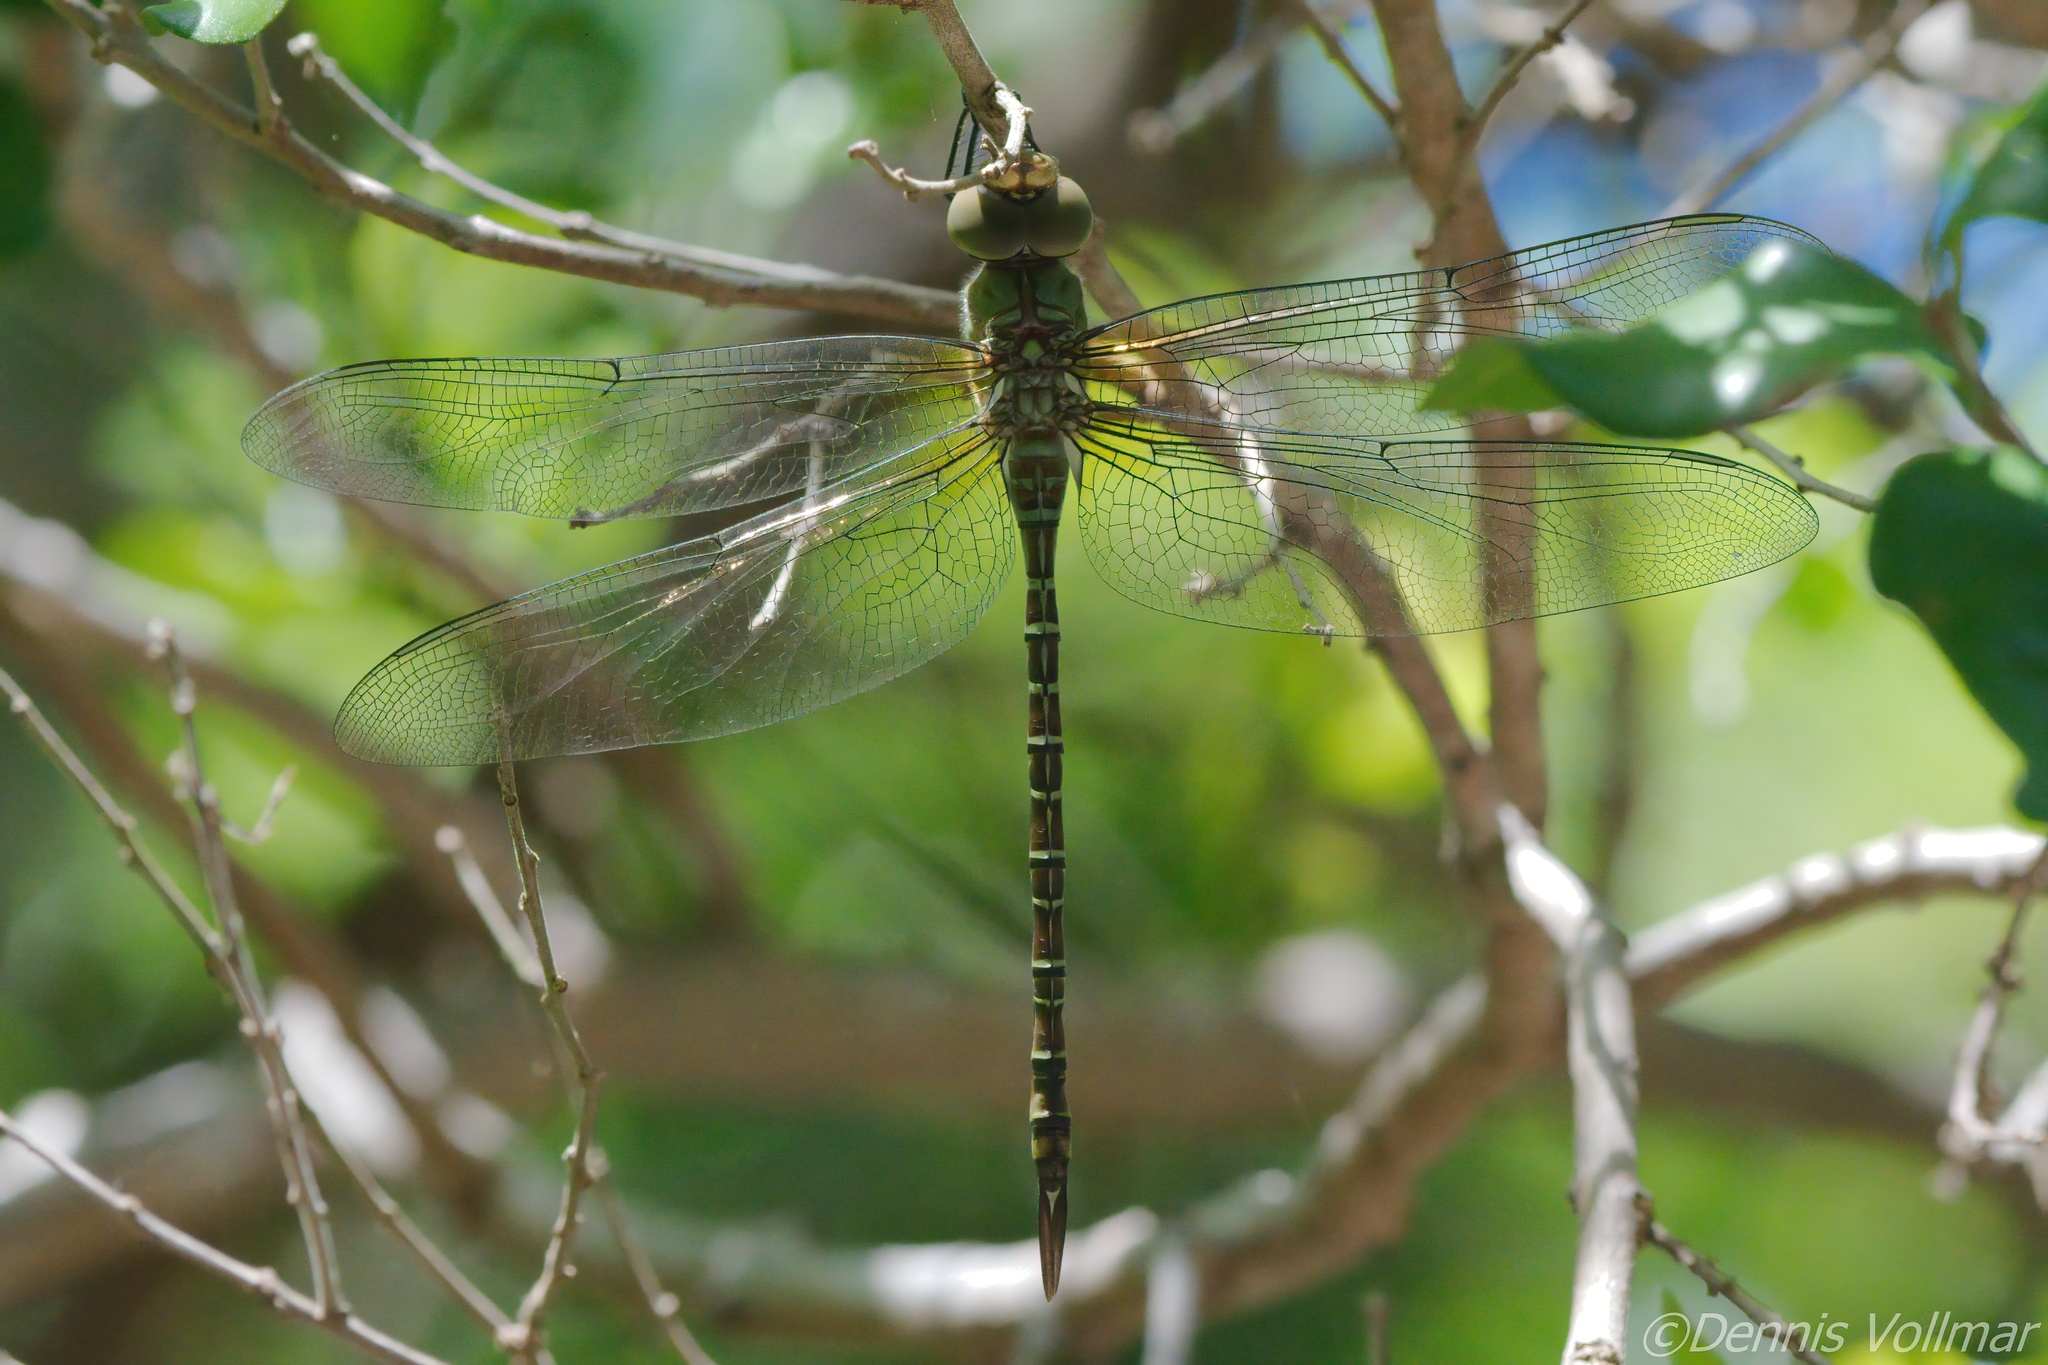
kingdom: Animalia
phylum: Arthropoda
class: Insecta
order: Odonata
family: Aeshnidae
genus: Coryphaeschna
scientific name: Coryphaeschna viriditas
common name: Mangrove darner
